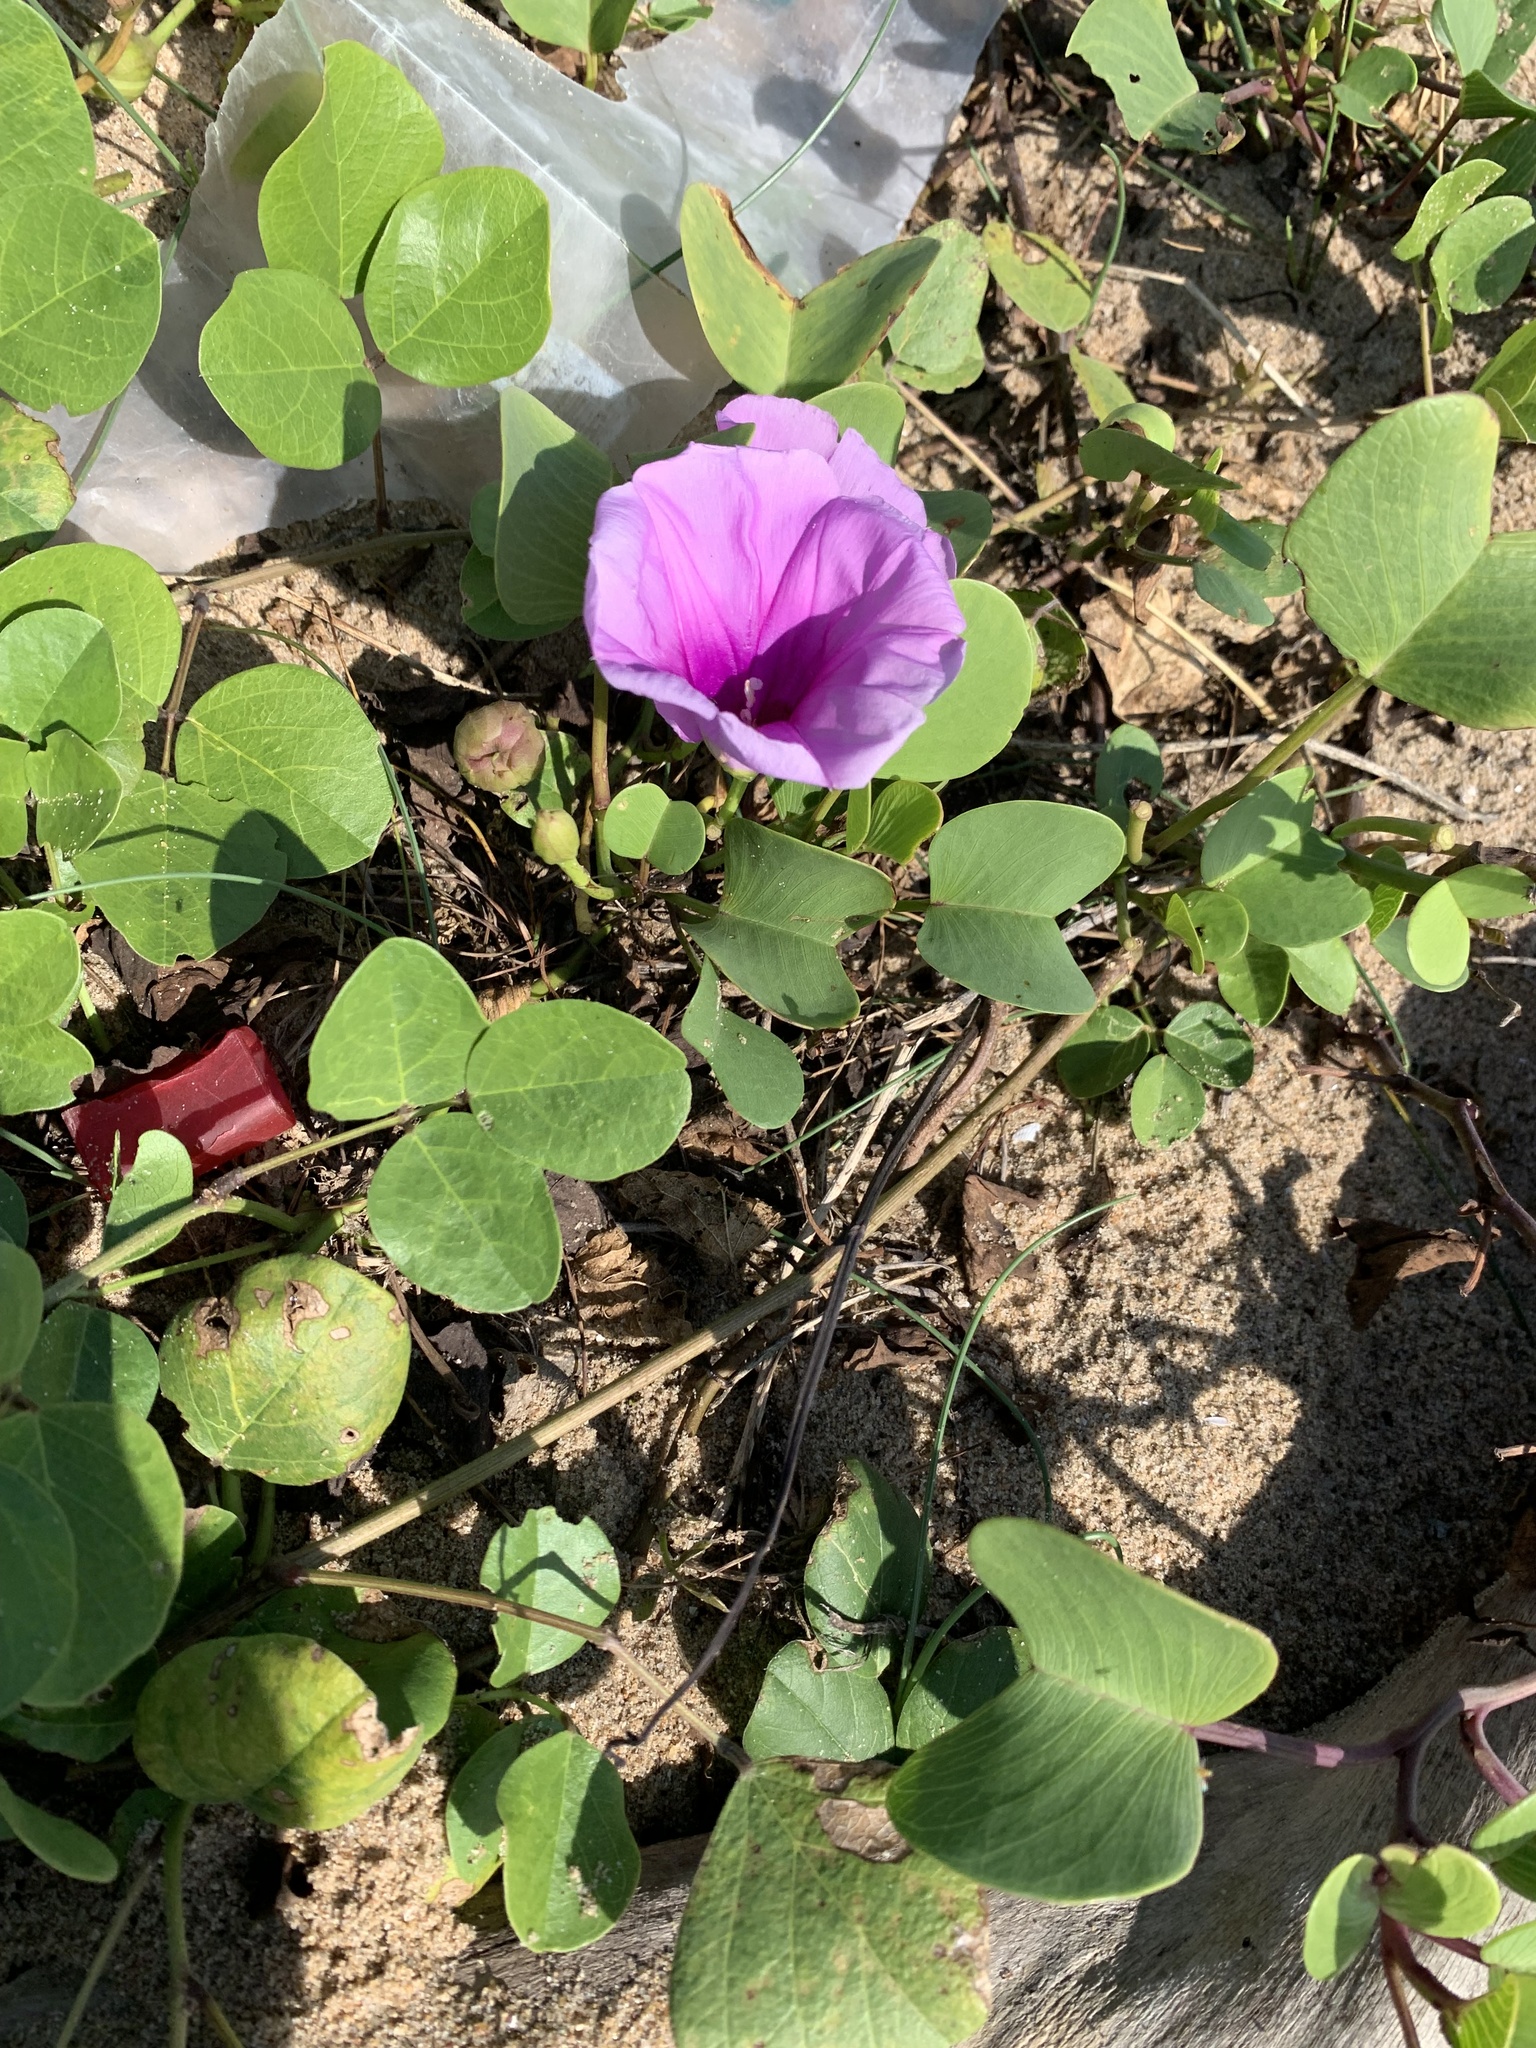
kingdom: Plantae
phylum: Tracheophyta
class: Magnoliopsida
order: Solanales
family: Convolvulaceae
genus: Ipomoea
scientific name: Ipomoea pes-caprae
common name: Beach morning glory
